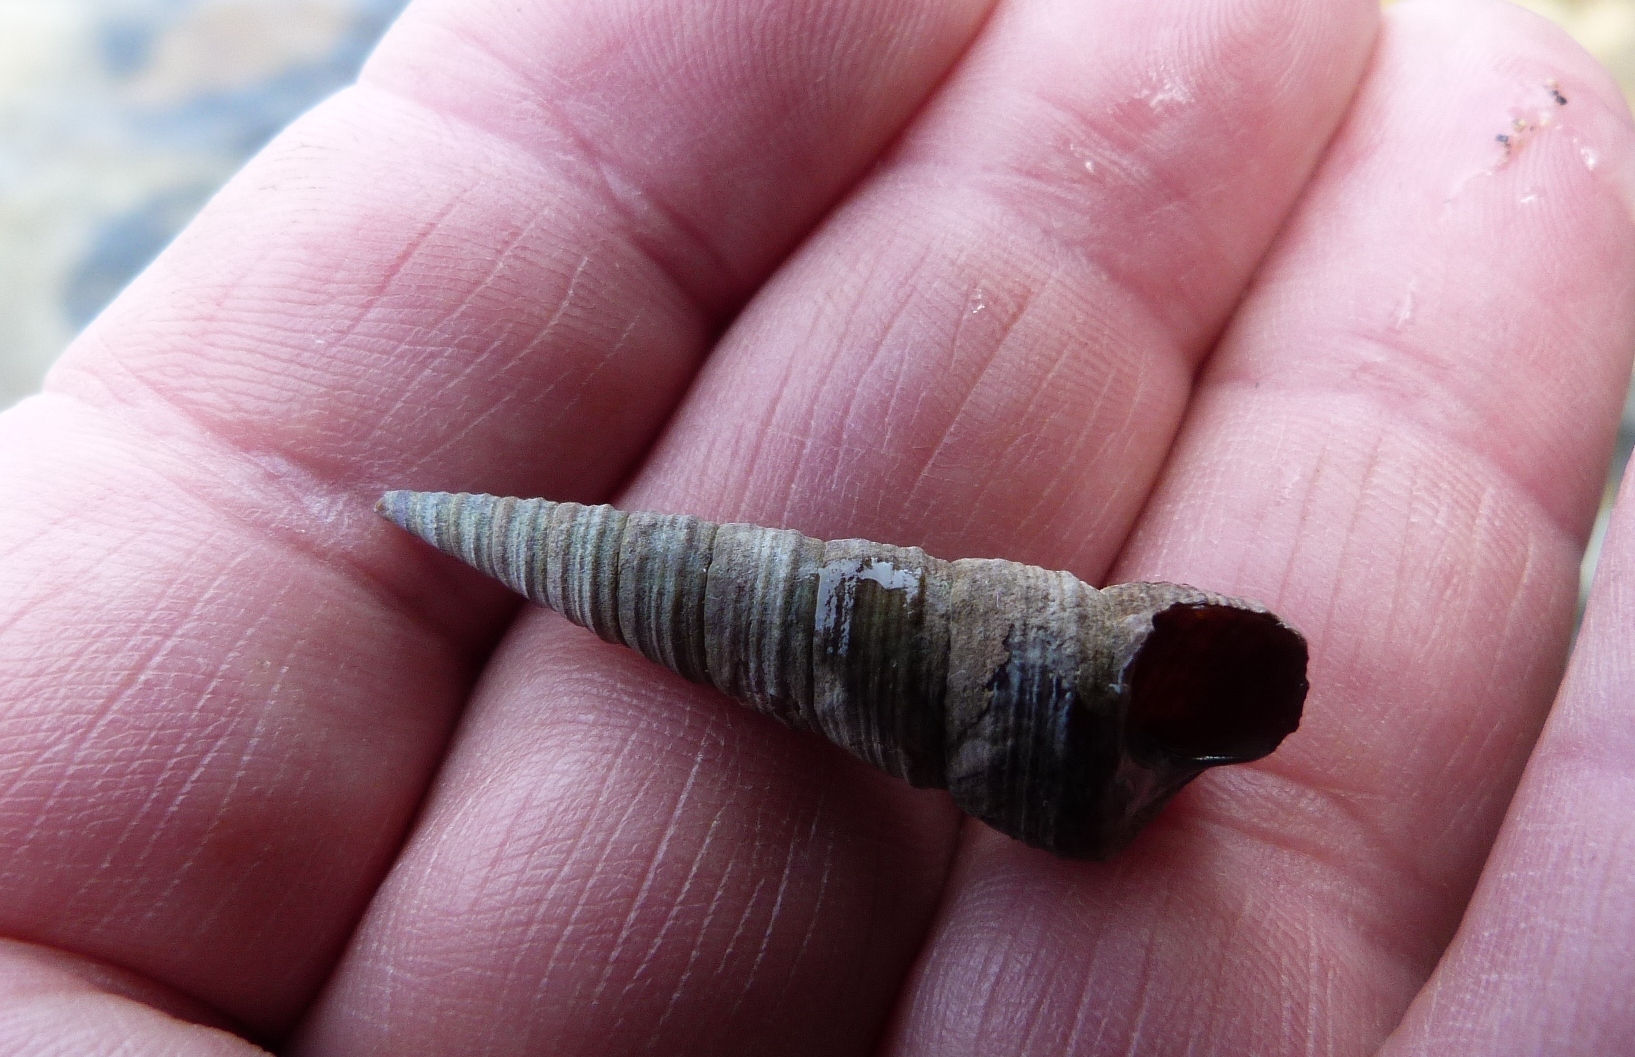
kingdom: Animalia
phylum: Mollusca
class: Gastropoda
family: Turritellidae
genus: Maoricolpus
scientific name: Maoricolpus roseus
